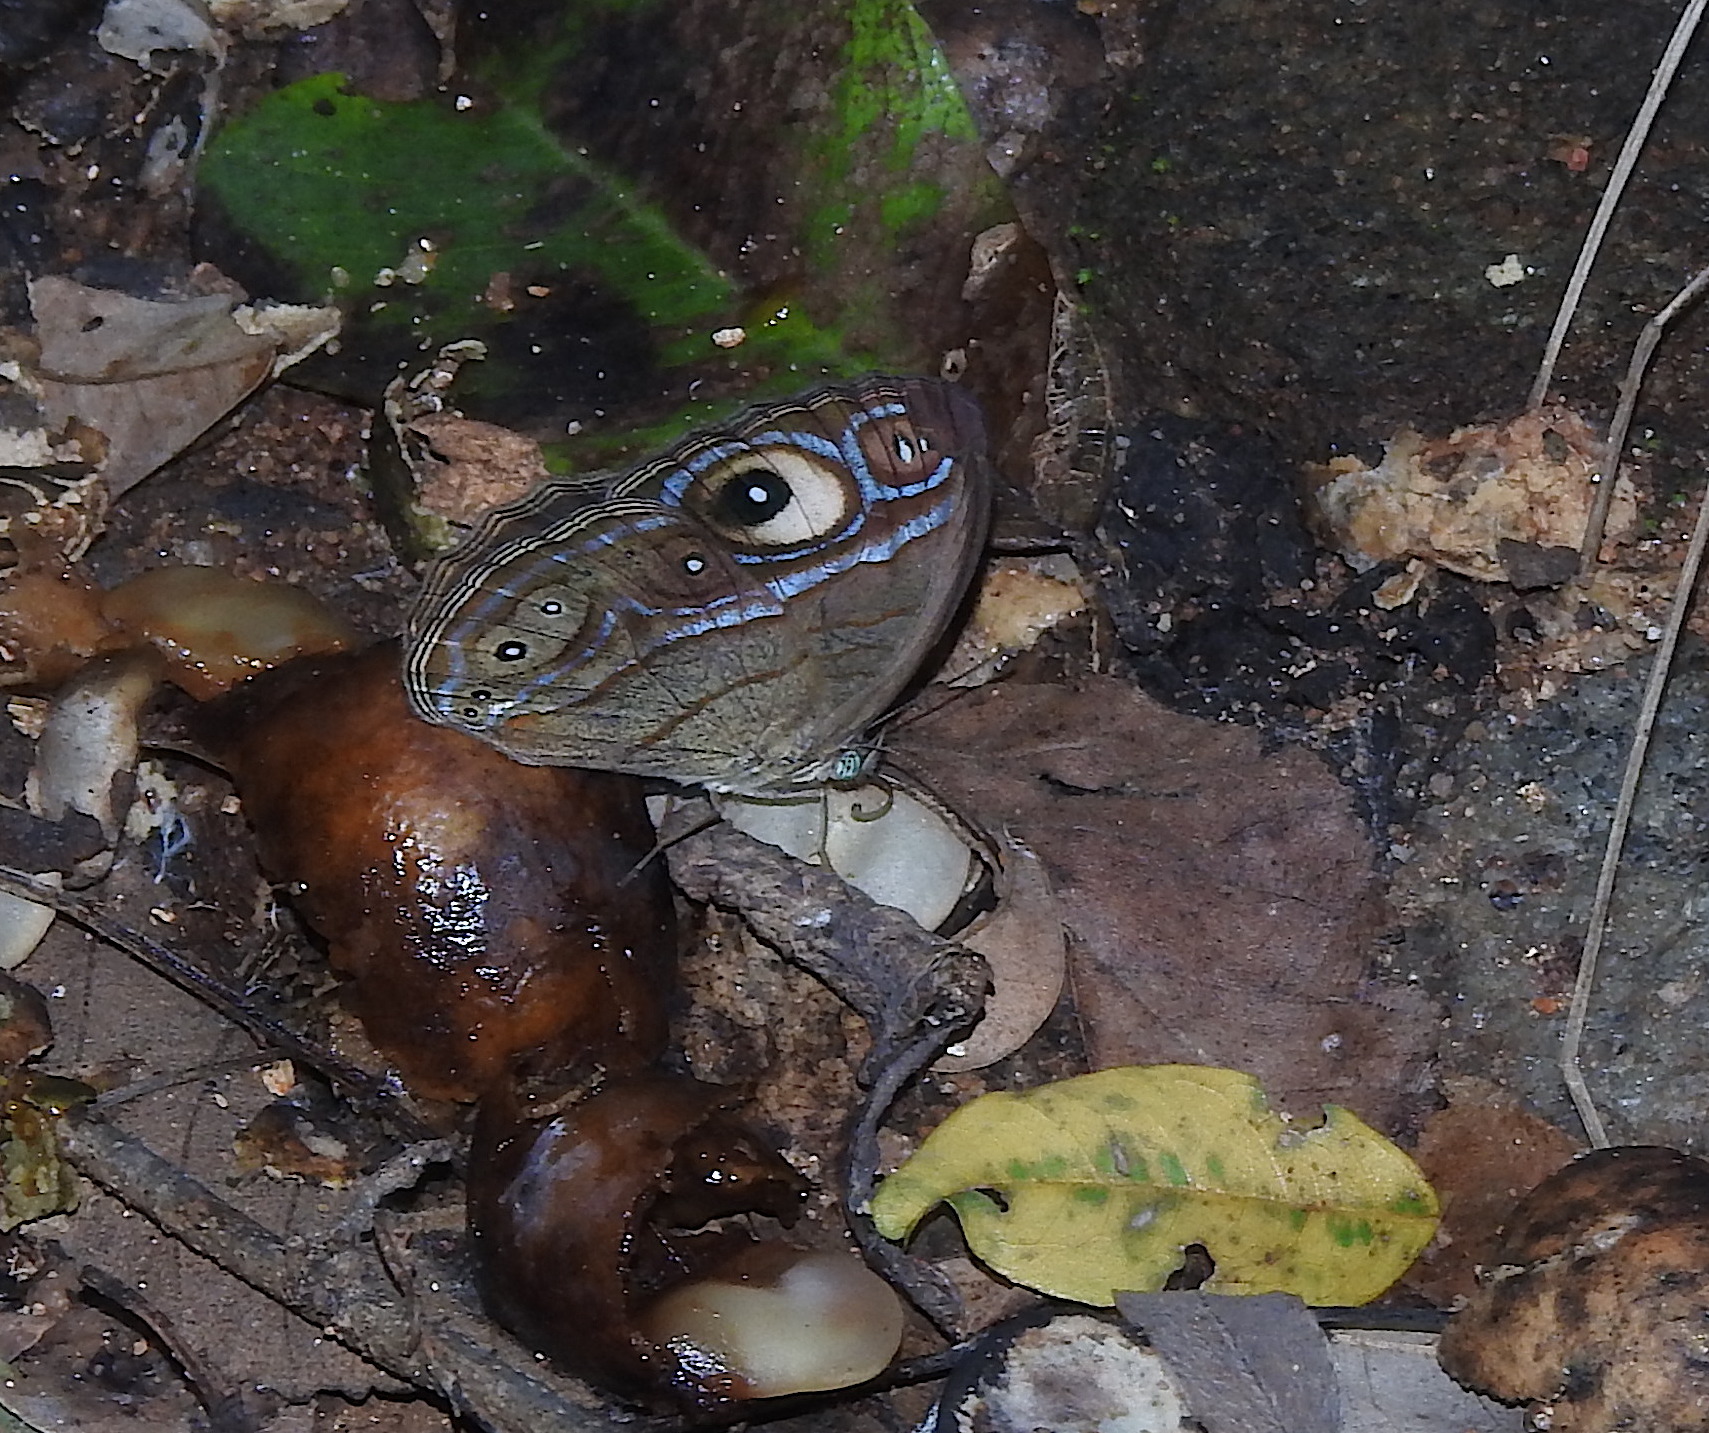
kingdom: Animalia
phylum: Arthropoda
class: Insecta
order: Lepidoptera
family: Nymphalidae
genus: Mycalesis
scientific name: Mycalesis patnia
